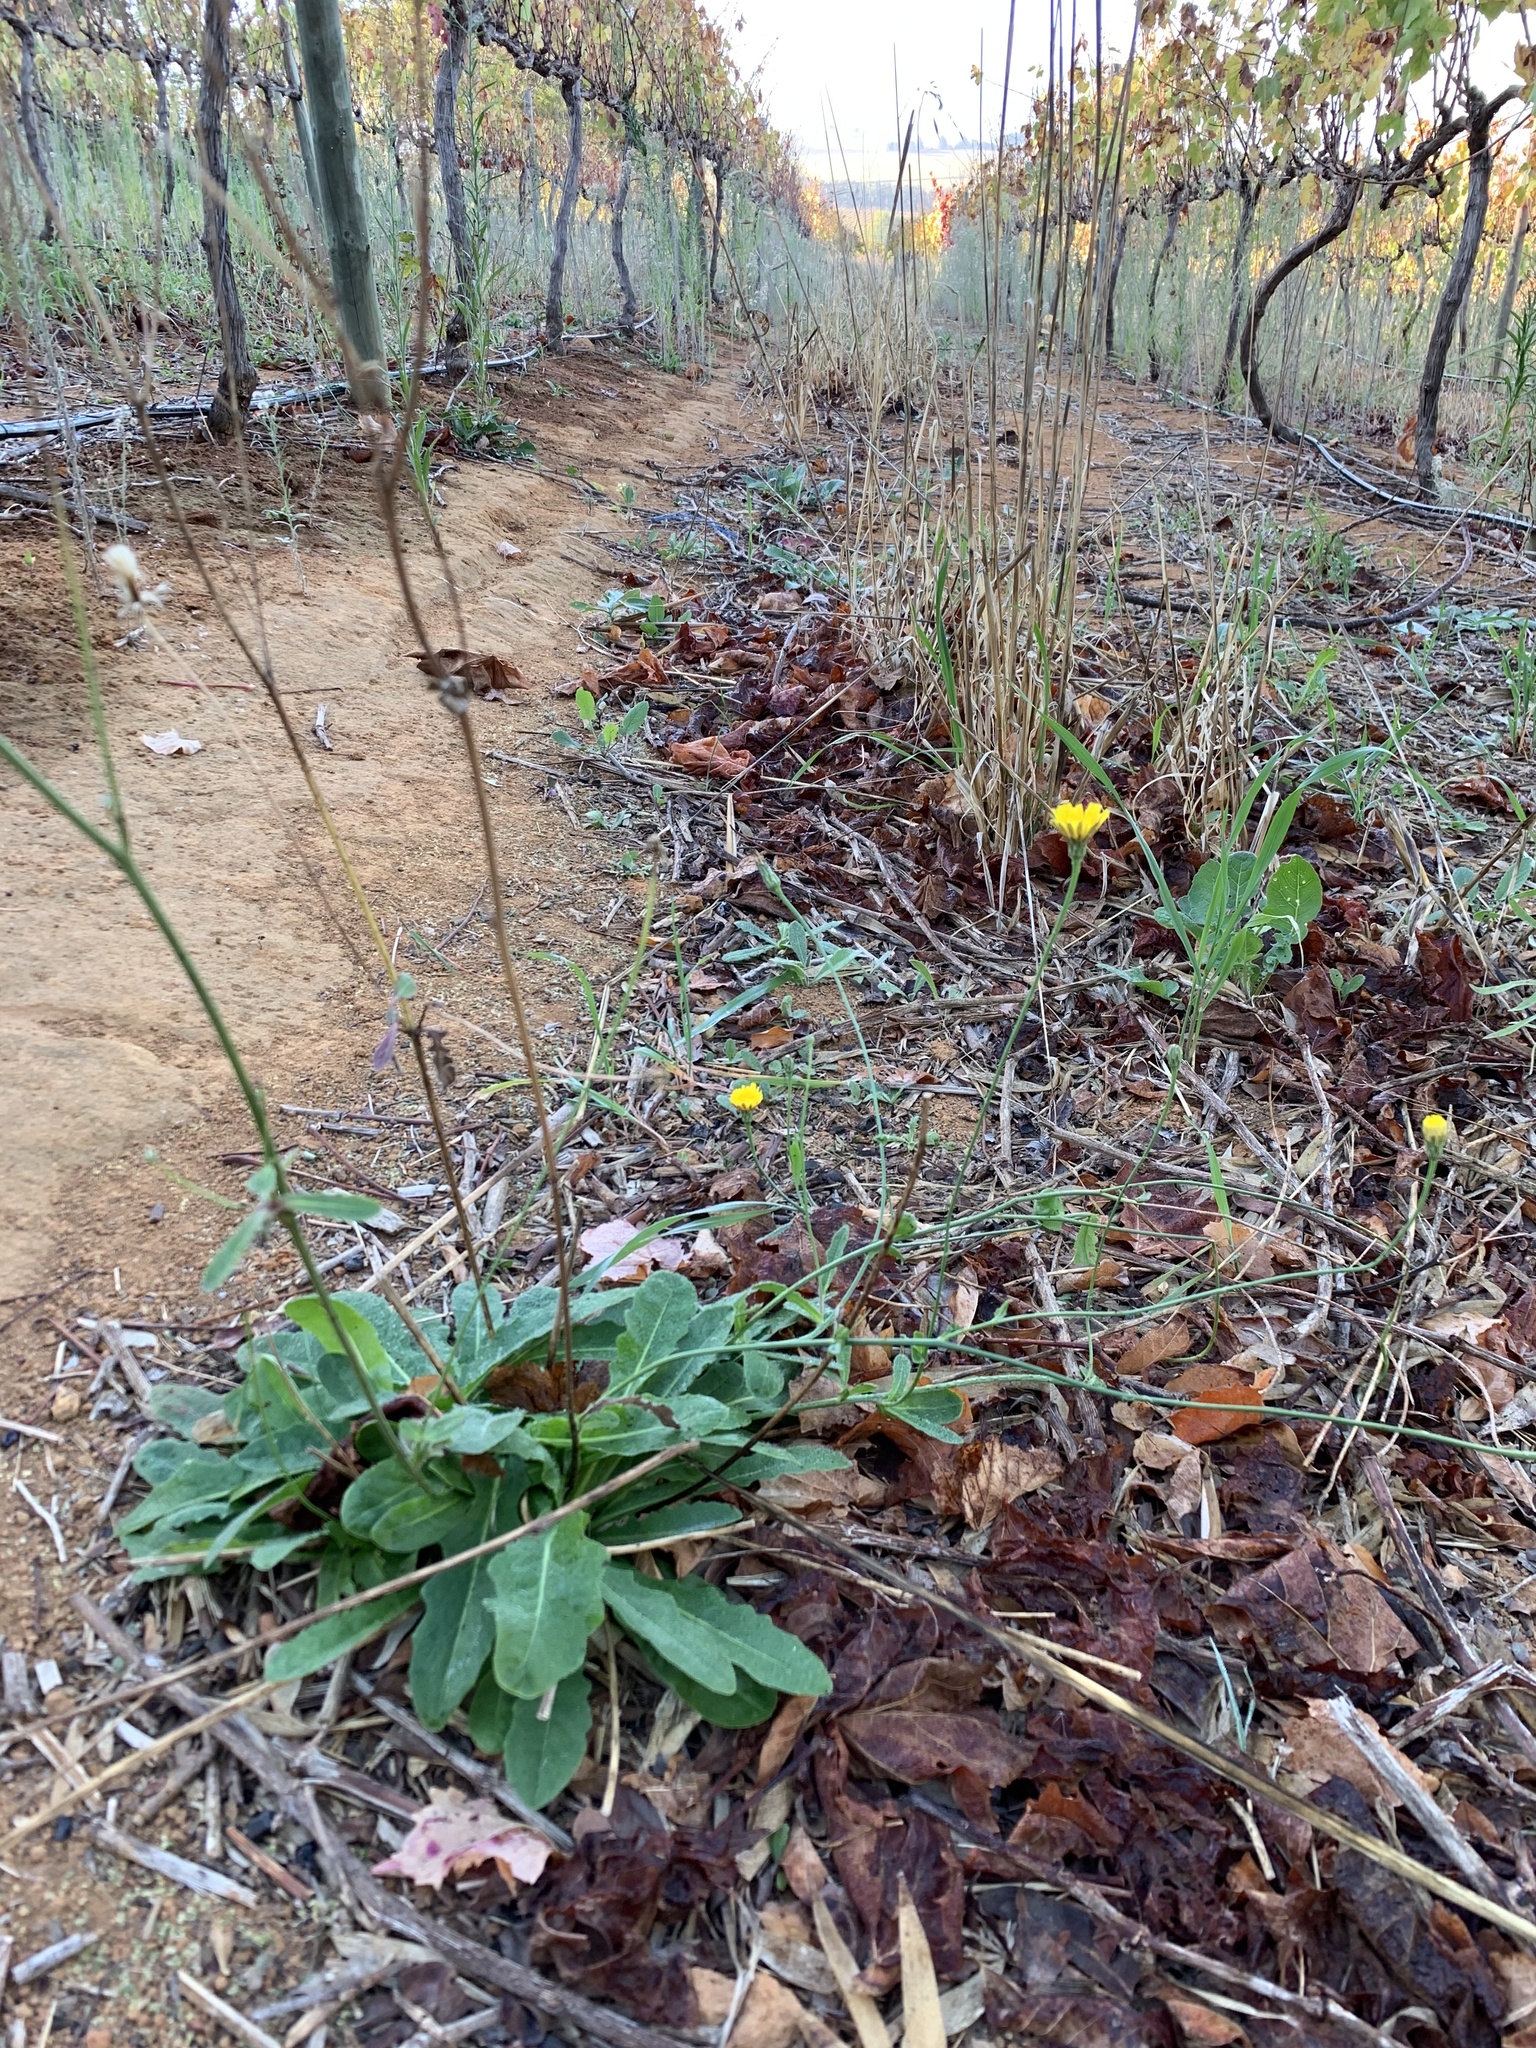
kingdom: Plantae
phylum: Tracheophyta
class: Magnoliopsida
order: Asterales
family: Asteraceae
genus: Hypochaeris
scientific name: Hypochaeris radicata
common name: Flatweed
